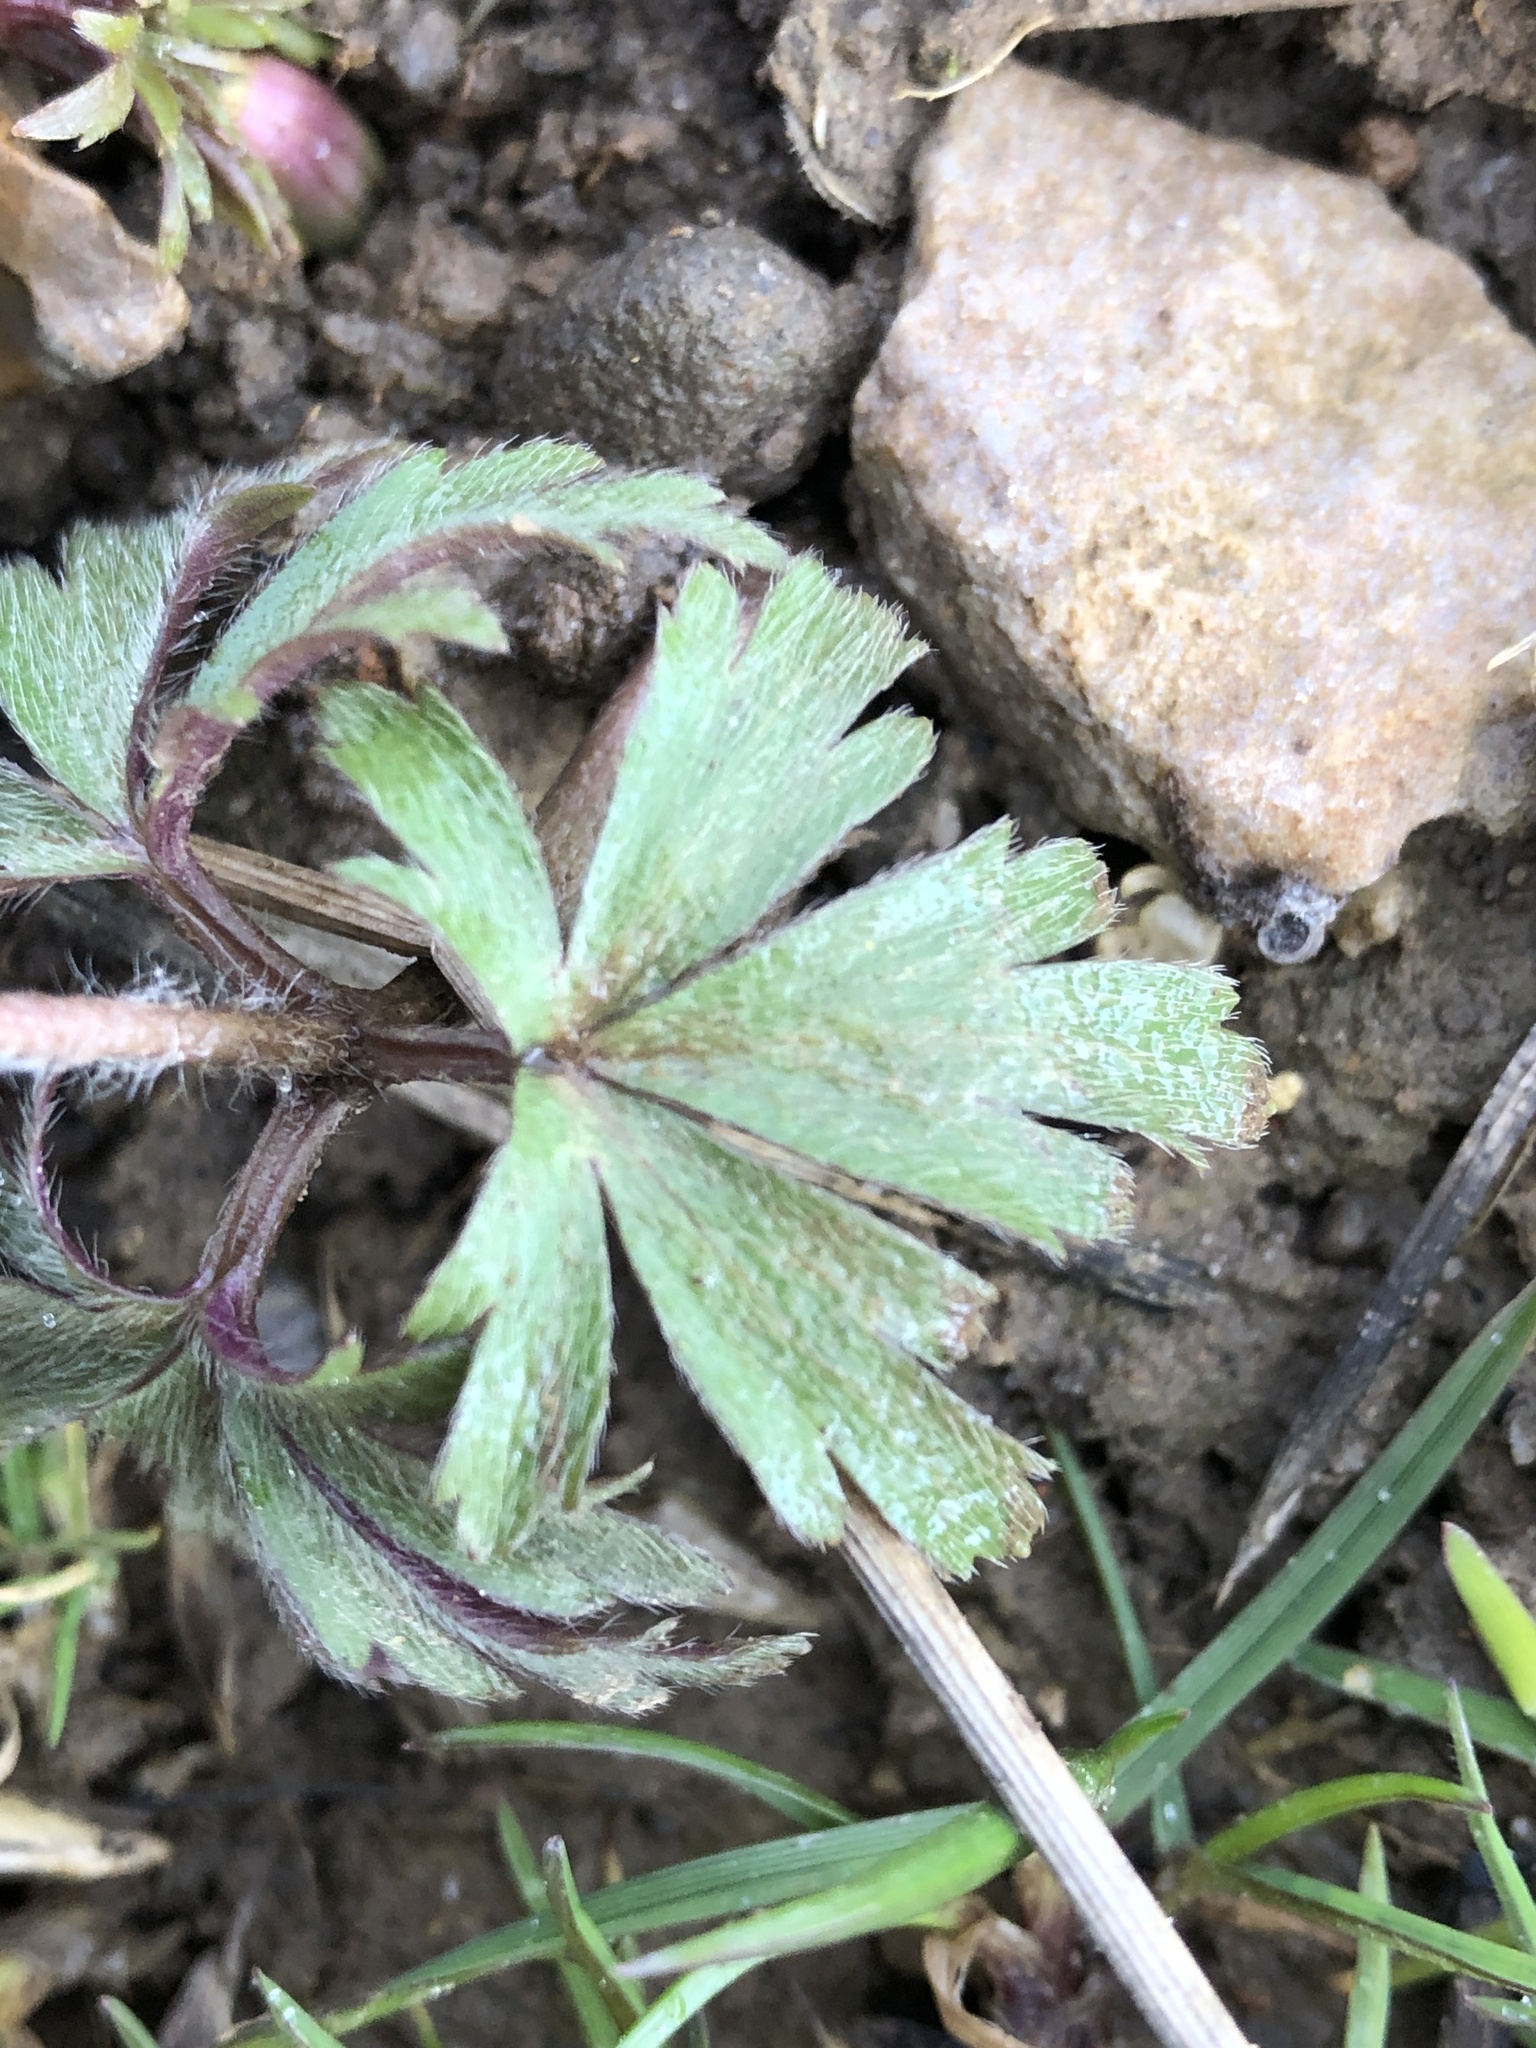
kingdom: Plantae
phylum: Tracheophyta
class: Magnoliopsida
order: Ranunculales
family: Ranunculaceae
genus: Anemone
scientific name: Anemone blanda
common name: Balkan anemone
